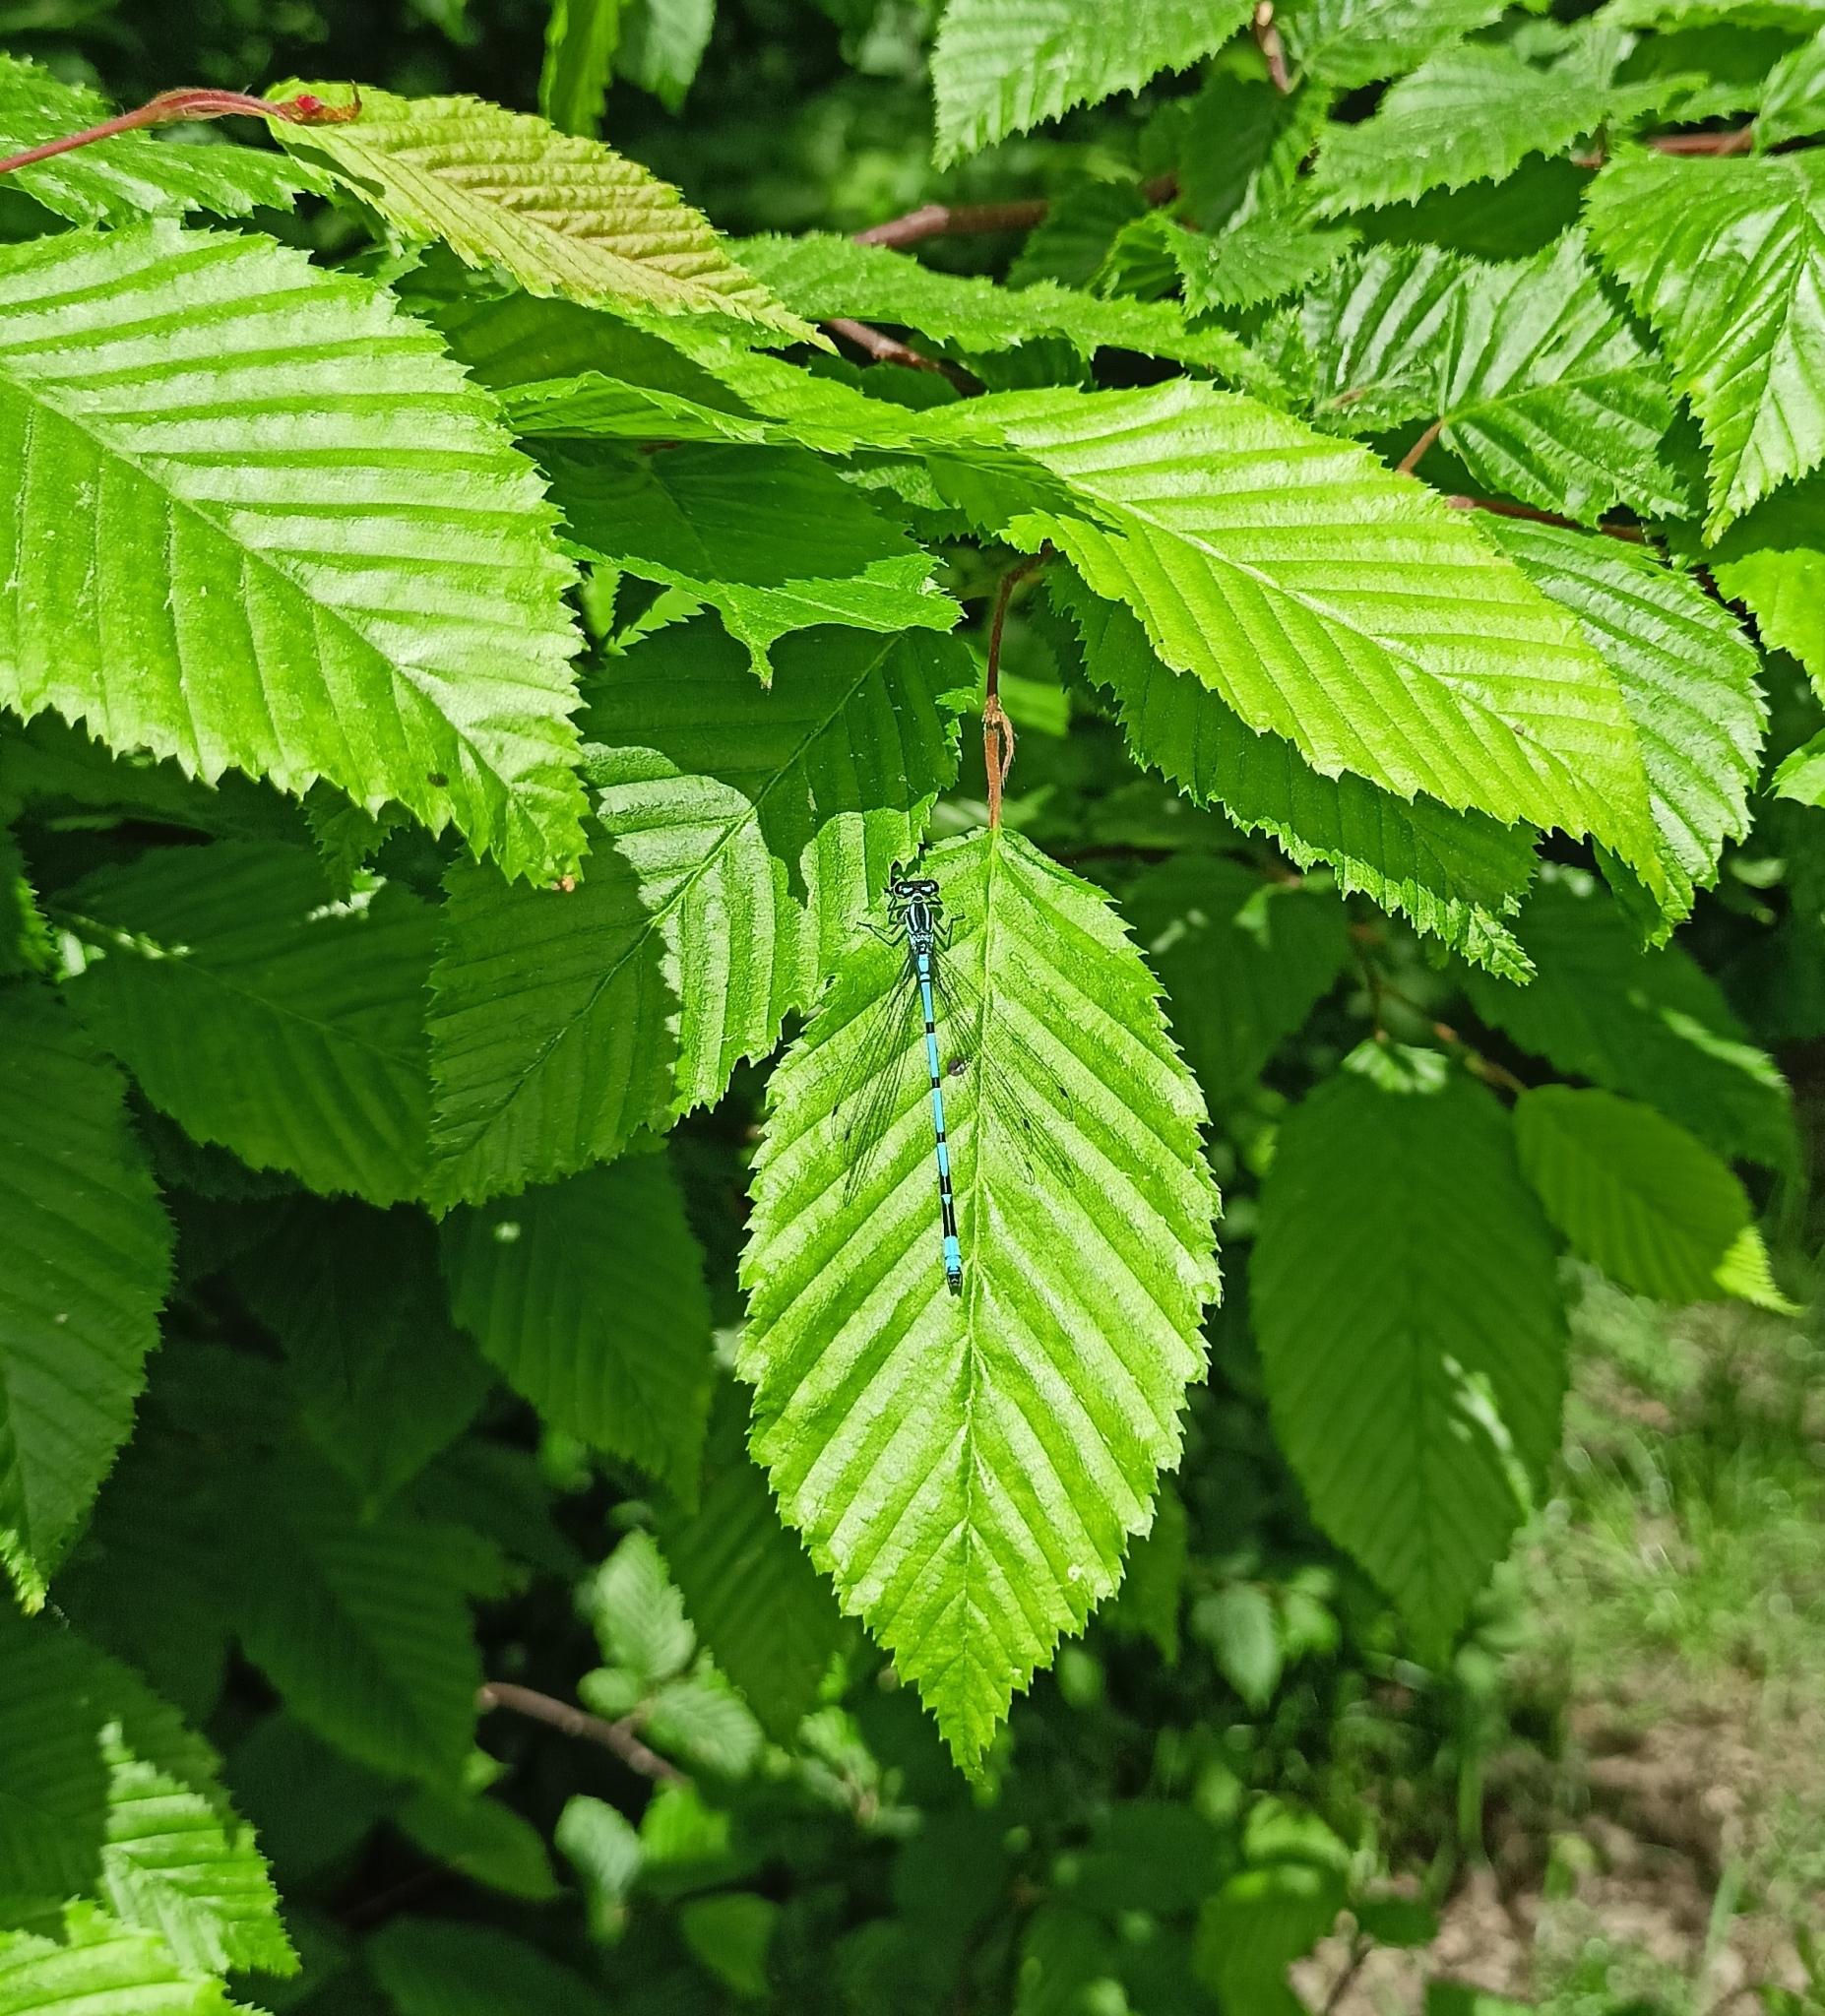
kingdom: Animalia
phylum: Arthropoda
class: Insecta
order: Odonata
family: Coenagrionidae
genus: Coenagrion
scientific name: Coenagrion puella
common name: Azure damselfly
